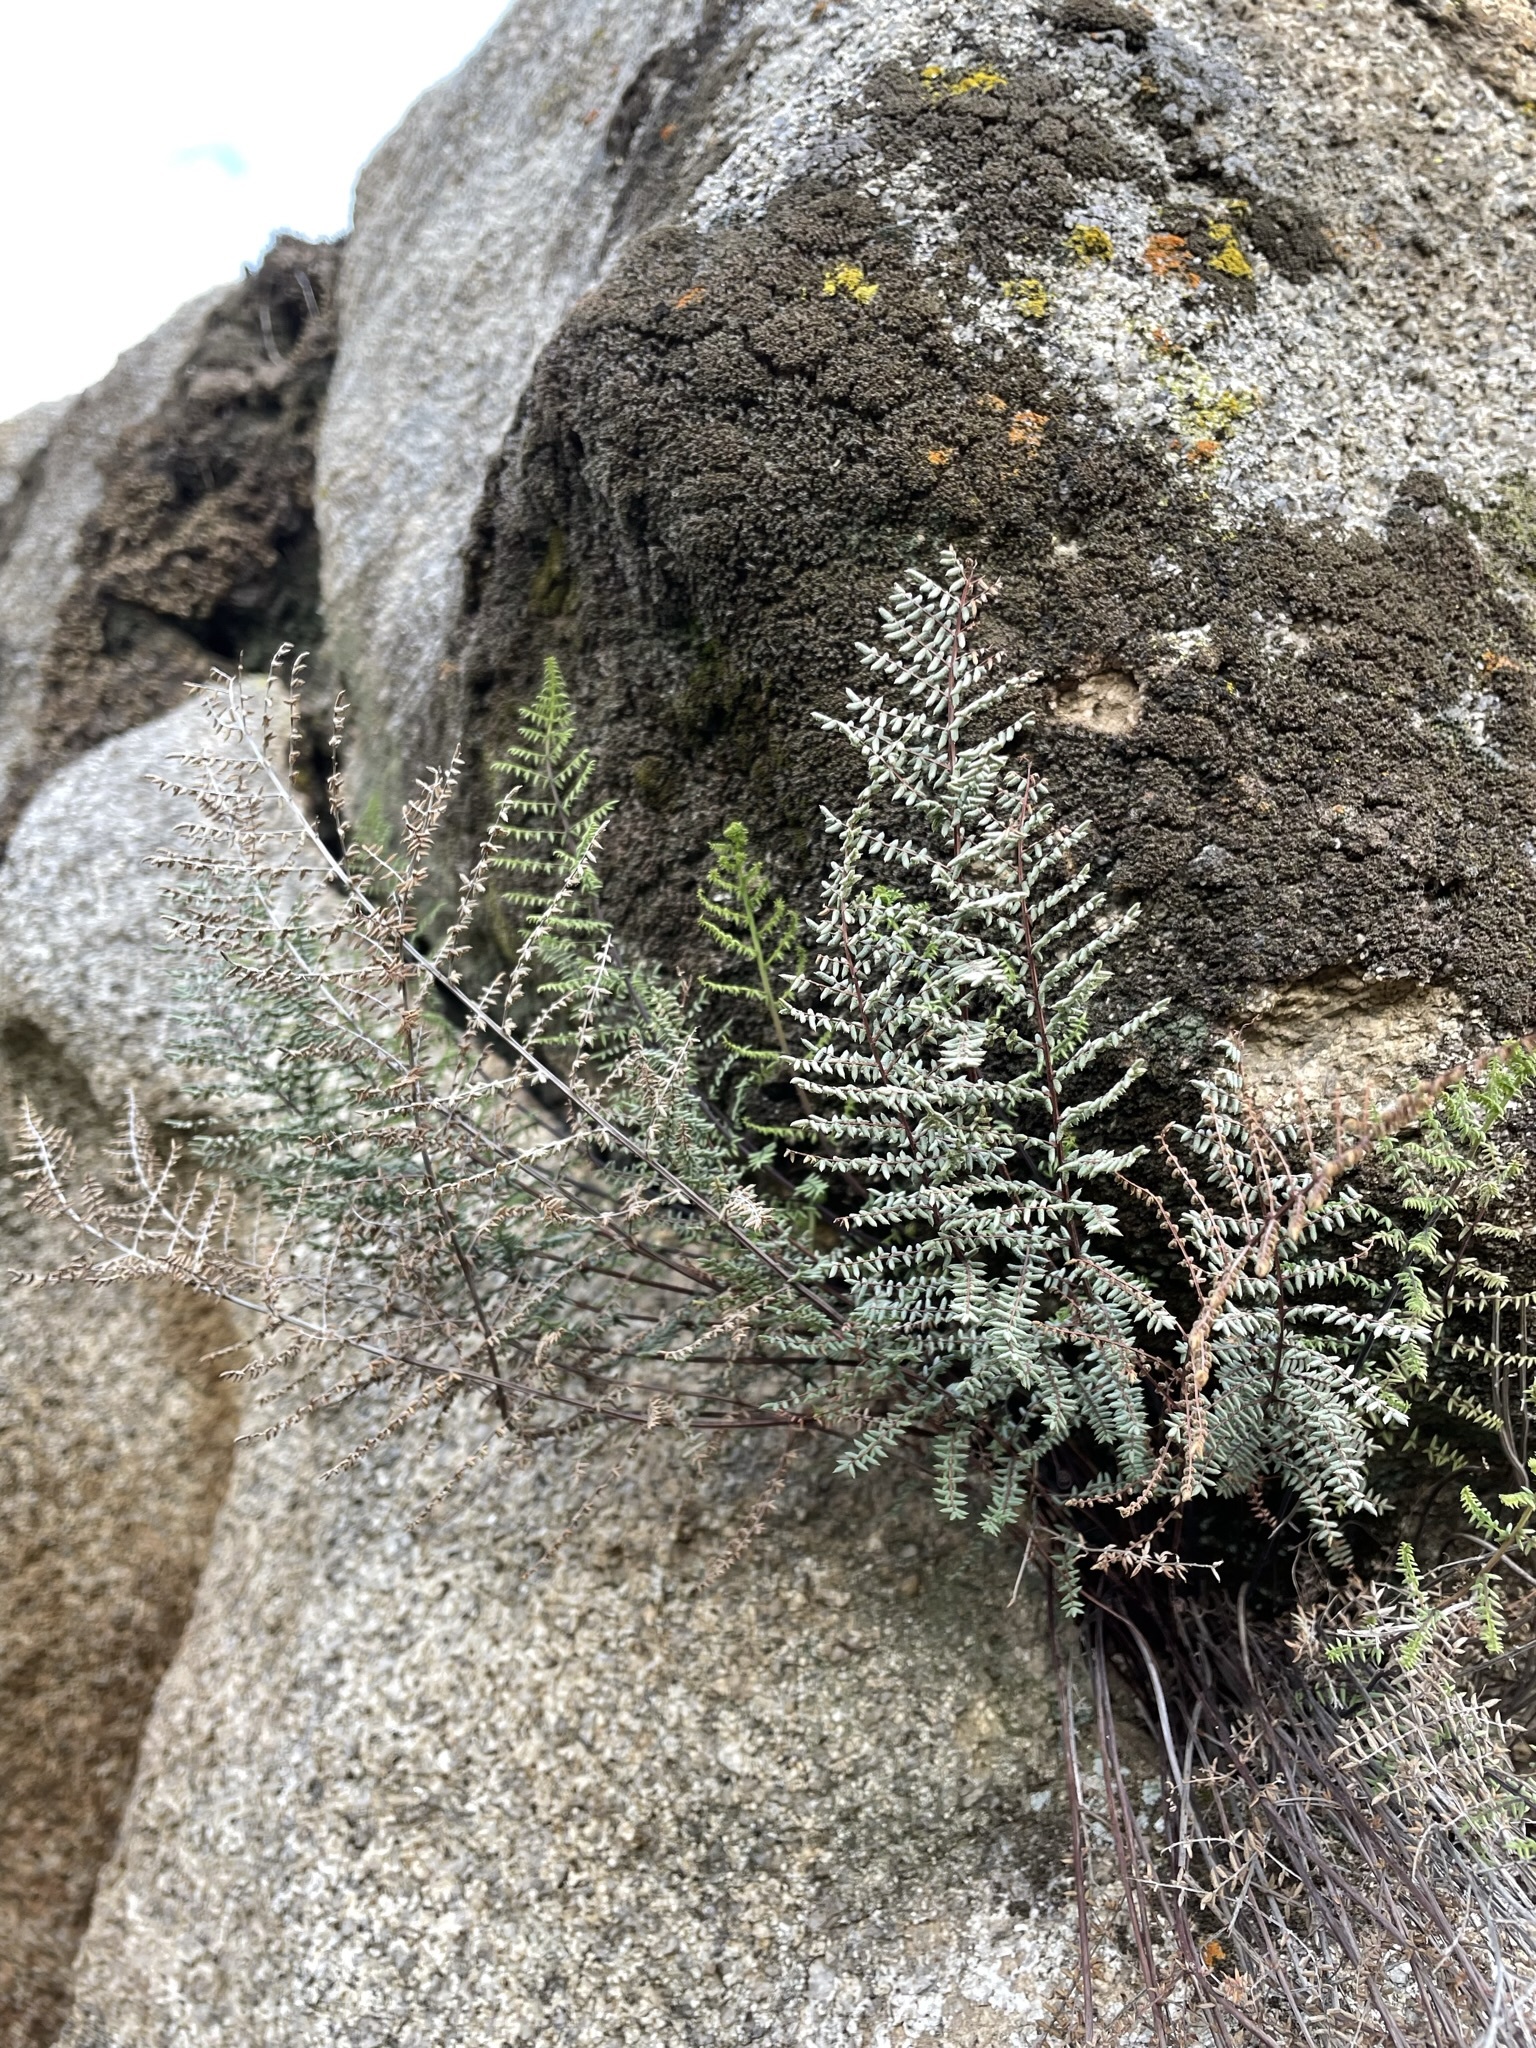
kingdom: Plantae
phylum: Tracheophyta
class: Polypodiopsida
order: Polypodiales
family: Pteridaceae
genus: Pellaea
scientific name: Pellaea mucronata
